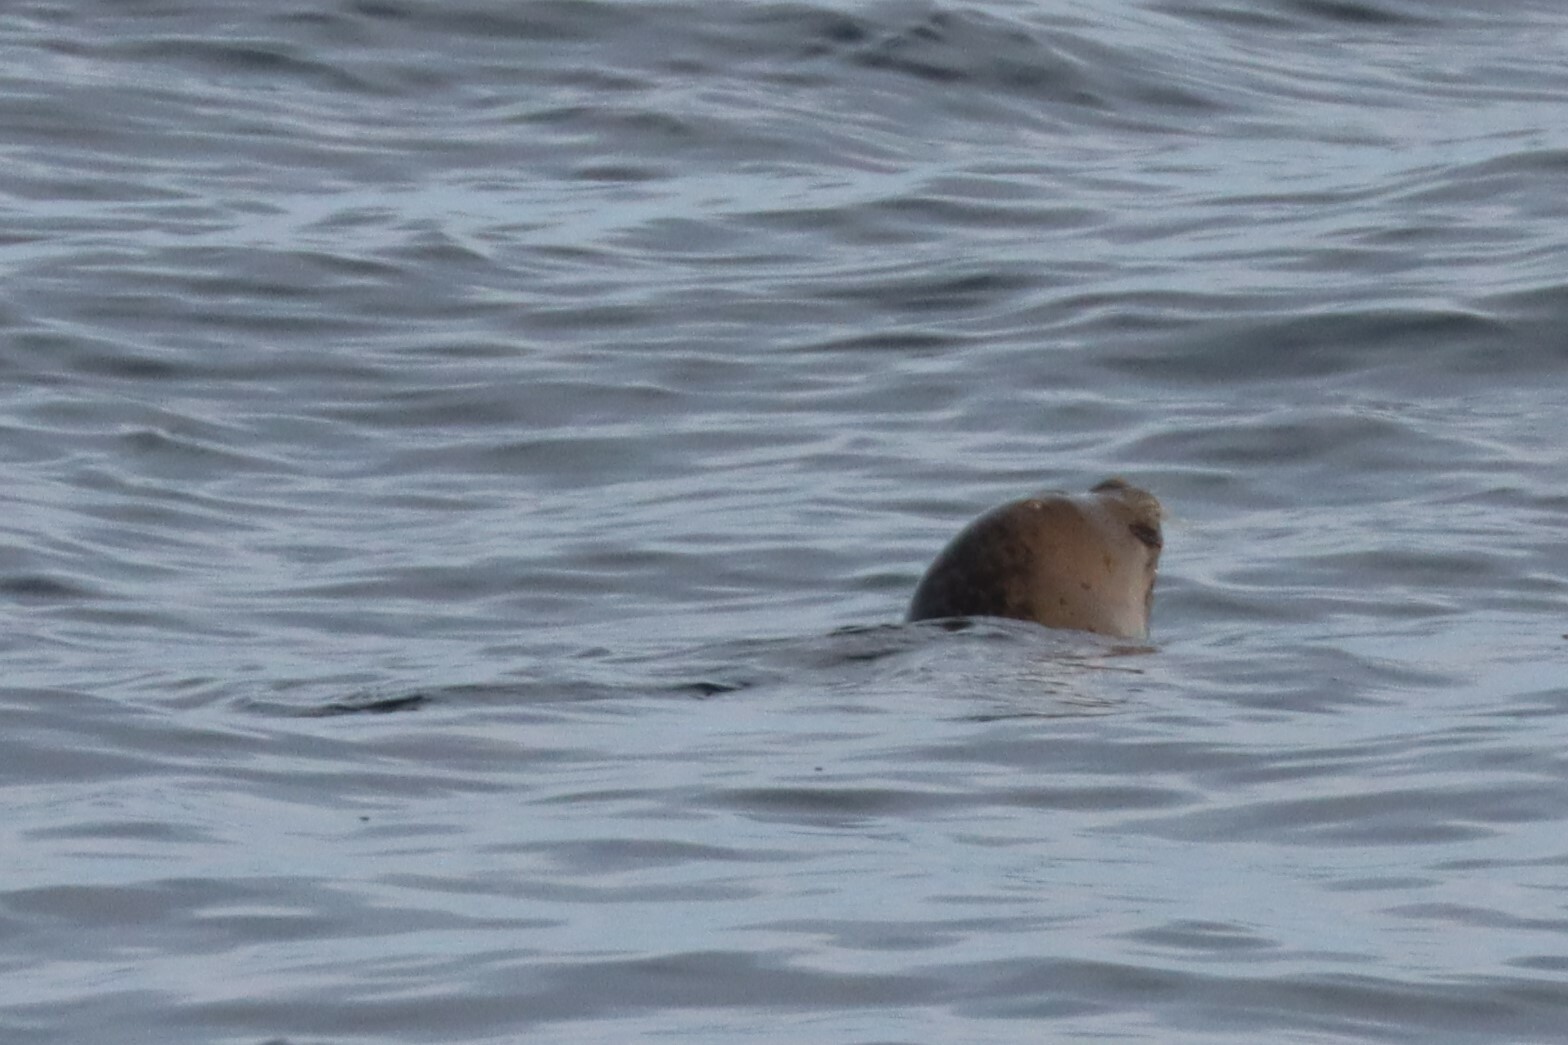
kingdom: Animalia
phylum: Chordata
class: Mammalia
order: Carnivora
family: Phocidae
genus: Phoca
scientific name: Phoca vitulina
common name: Harbor seal
